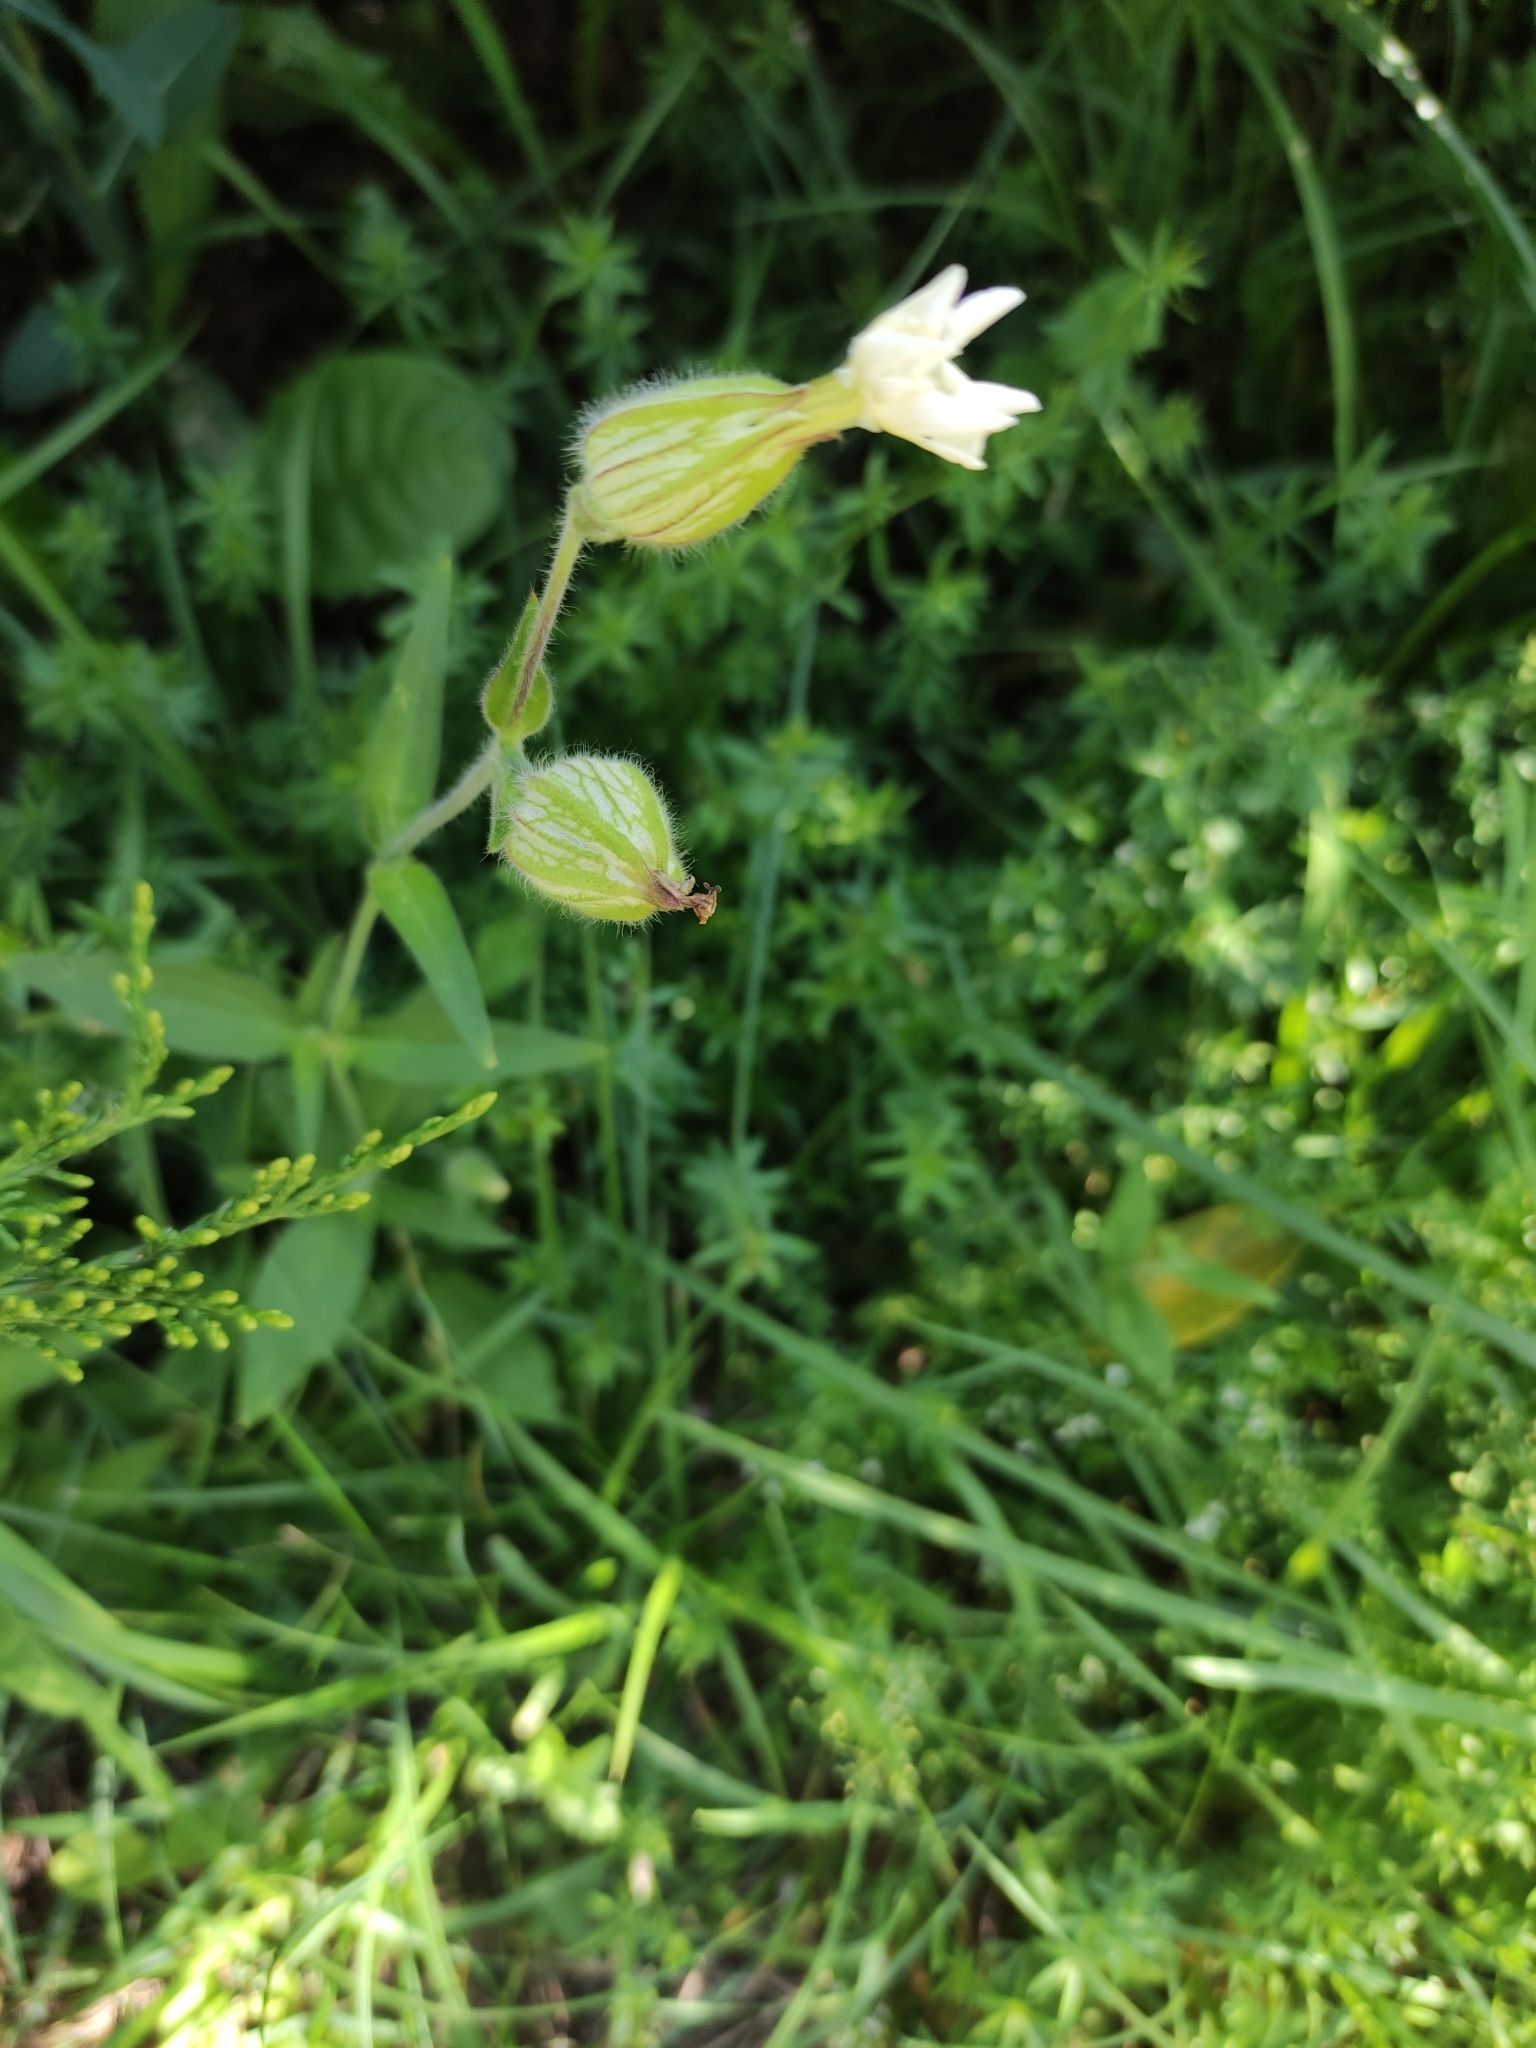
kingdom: Plantae
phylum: Tracheophyta
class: Magnoliopsida
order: Caryophyllales
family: Caryophyllaceae
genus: Silene
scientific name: Silene latifolia
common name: White campion
